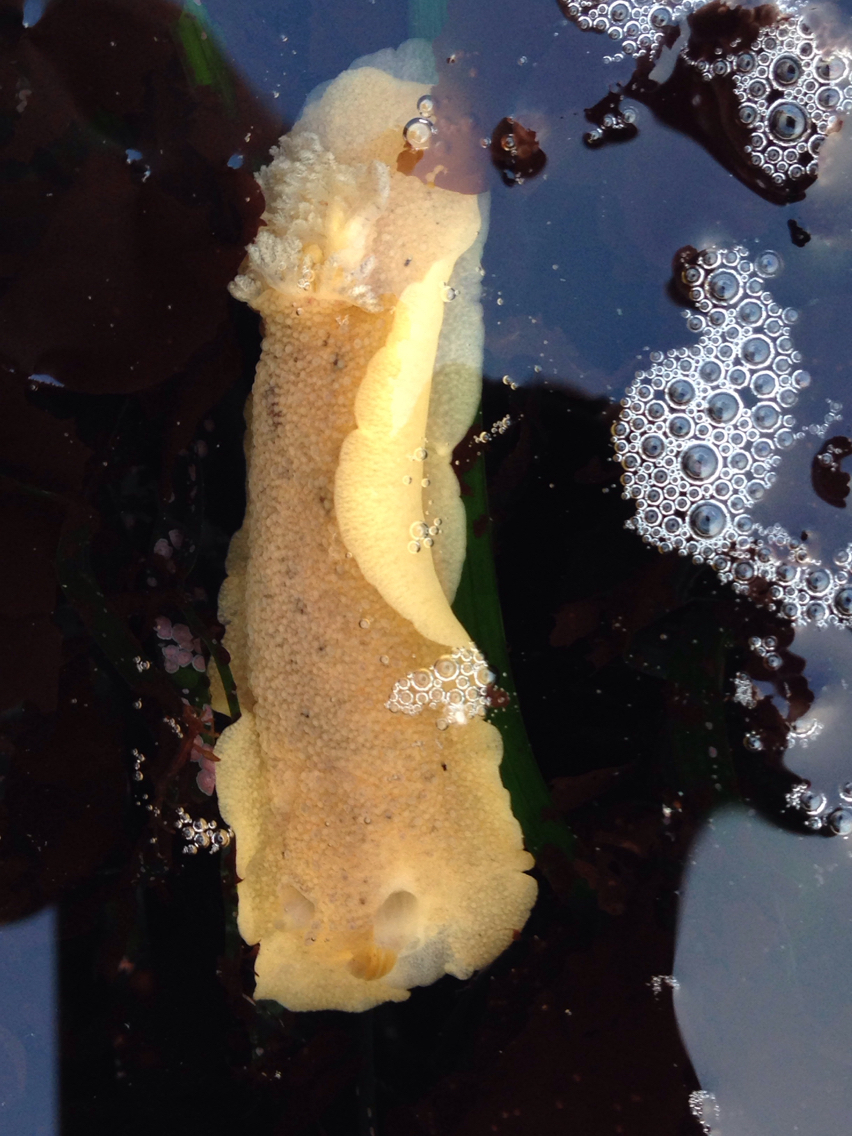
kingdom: Animalia
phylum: Mollusca
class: Gastropoda
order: Nudibranchia
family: Discodorididae
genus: Geitodoris
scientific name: Geitodoris heathi
